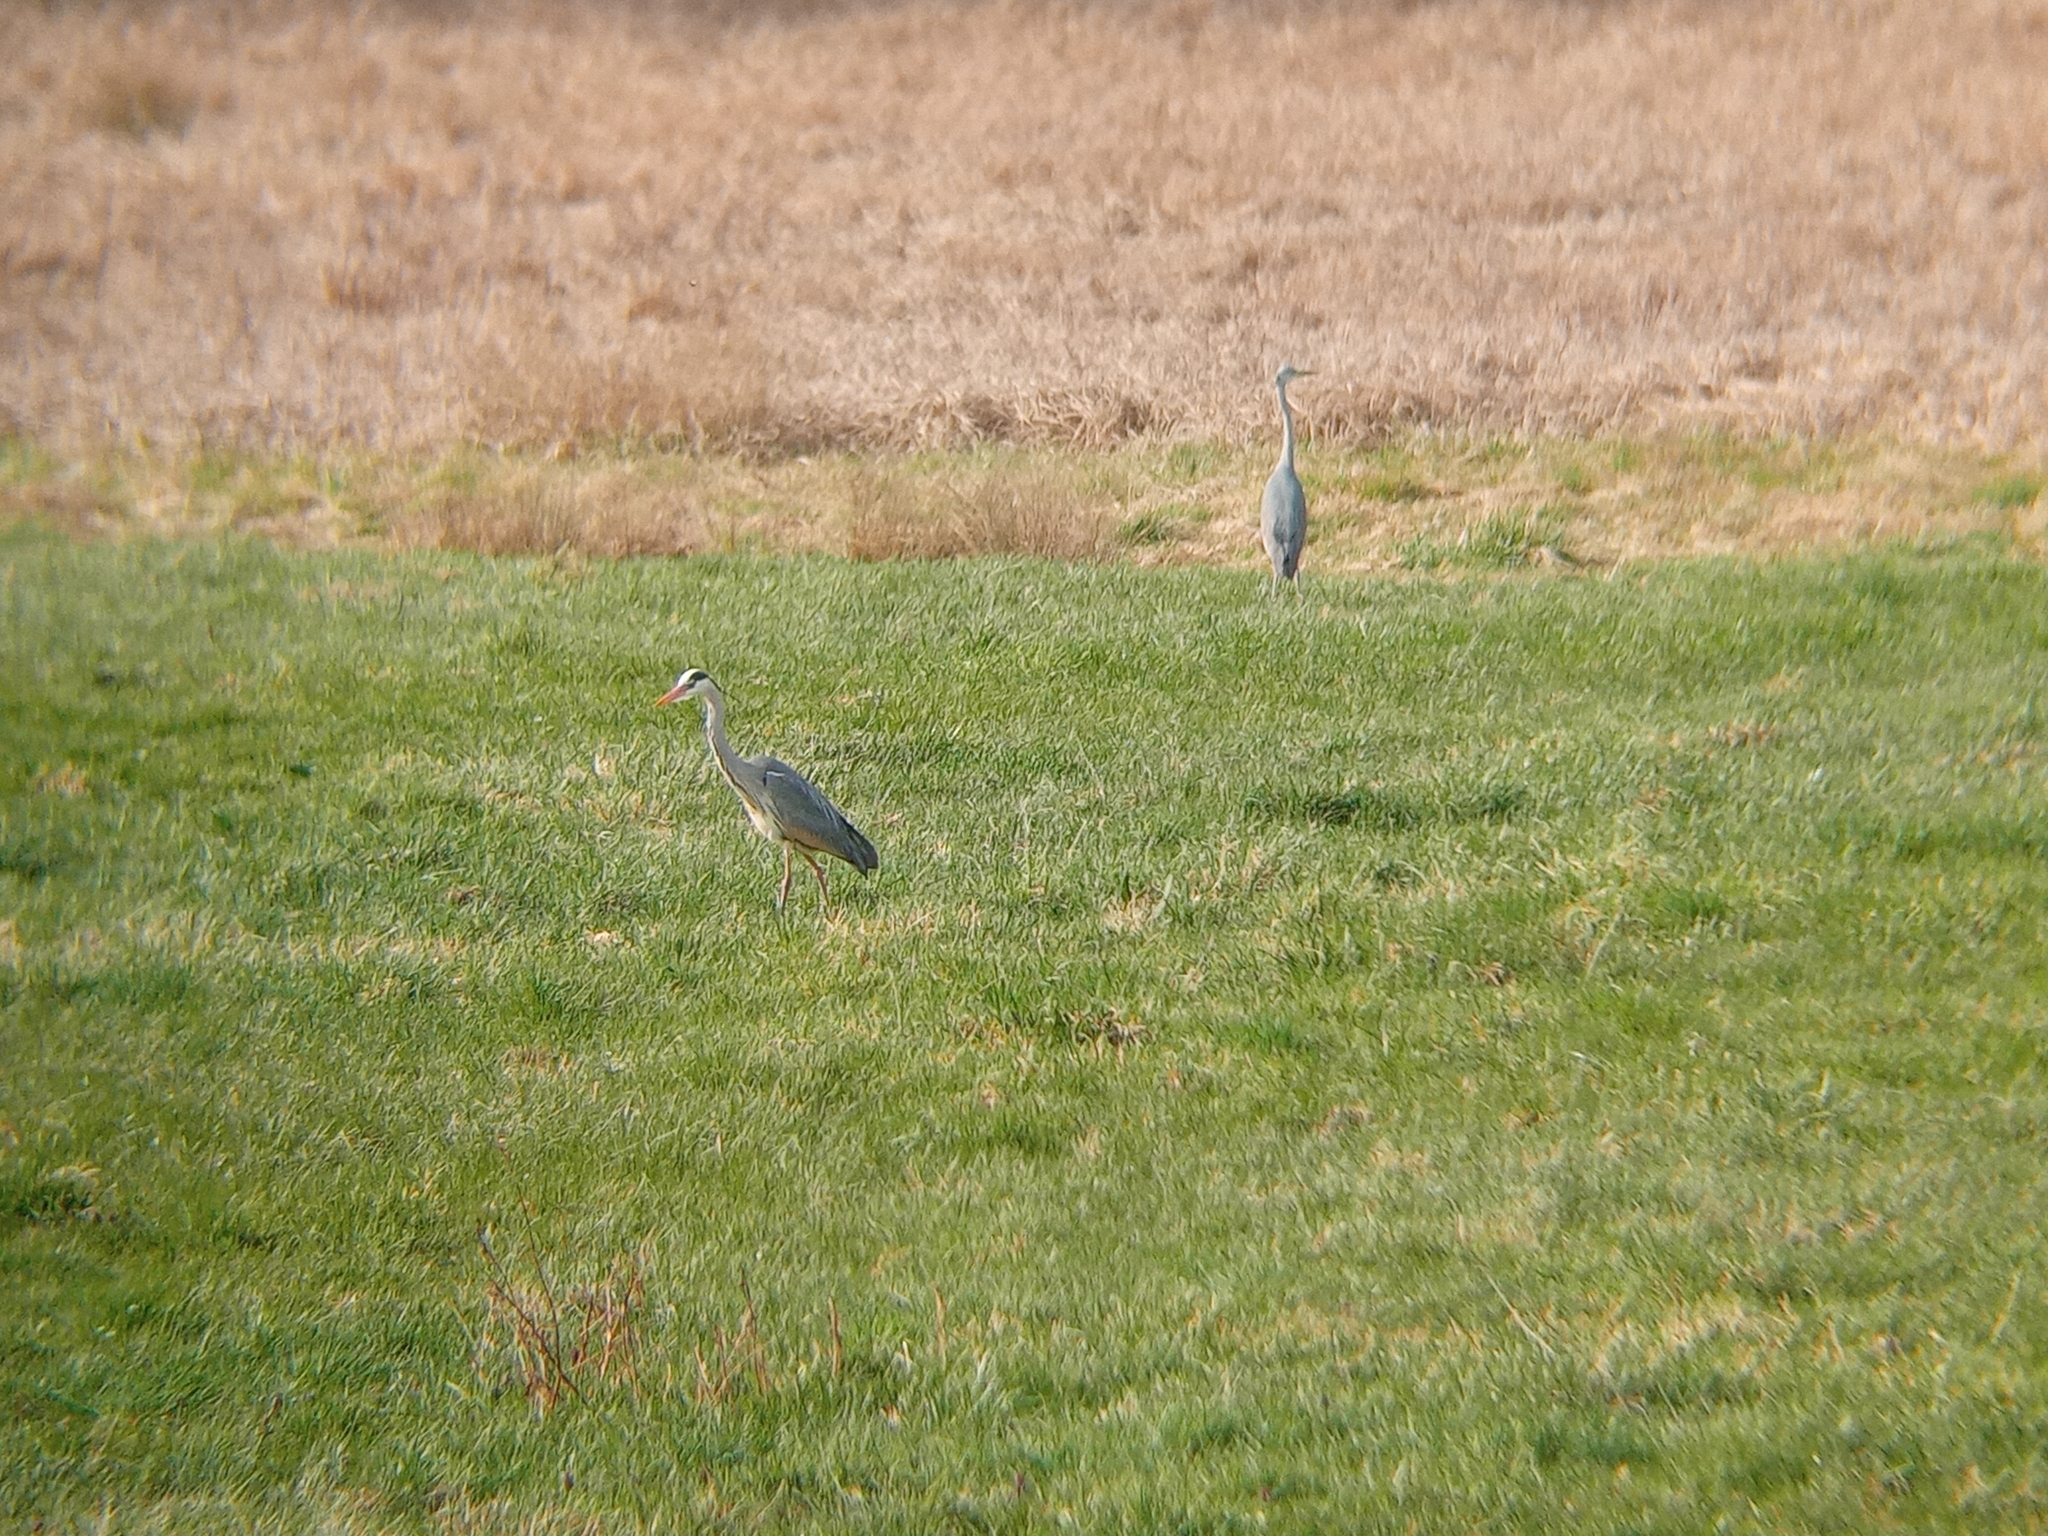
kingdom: Animalia
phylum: Chordata
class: Aves
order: Pelecaniformes
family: Ardeidae
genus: Ardea
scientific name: Ardea cinerea
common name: Grey heron
